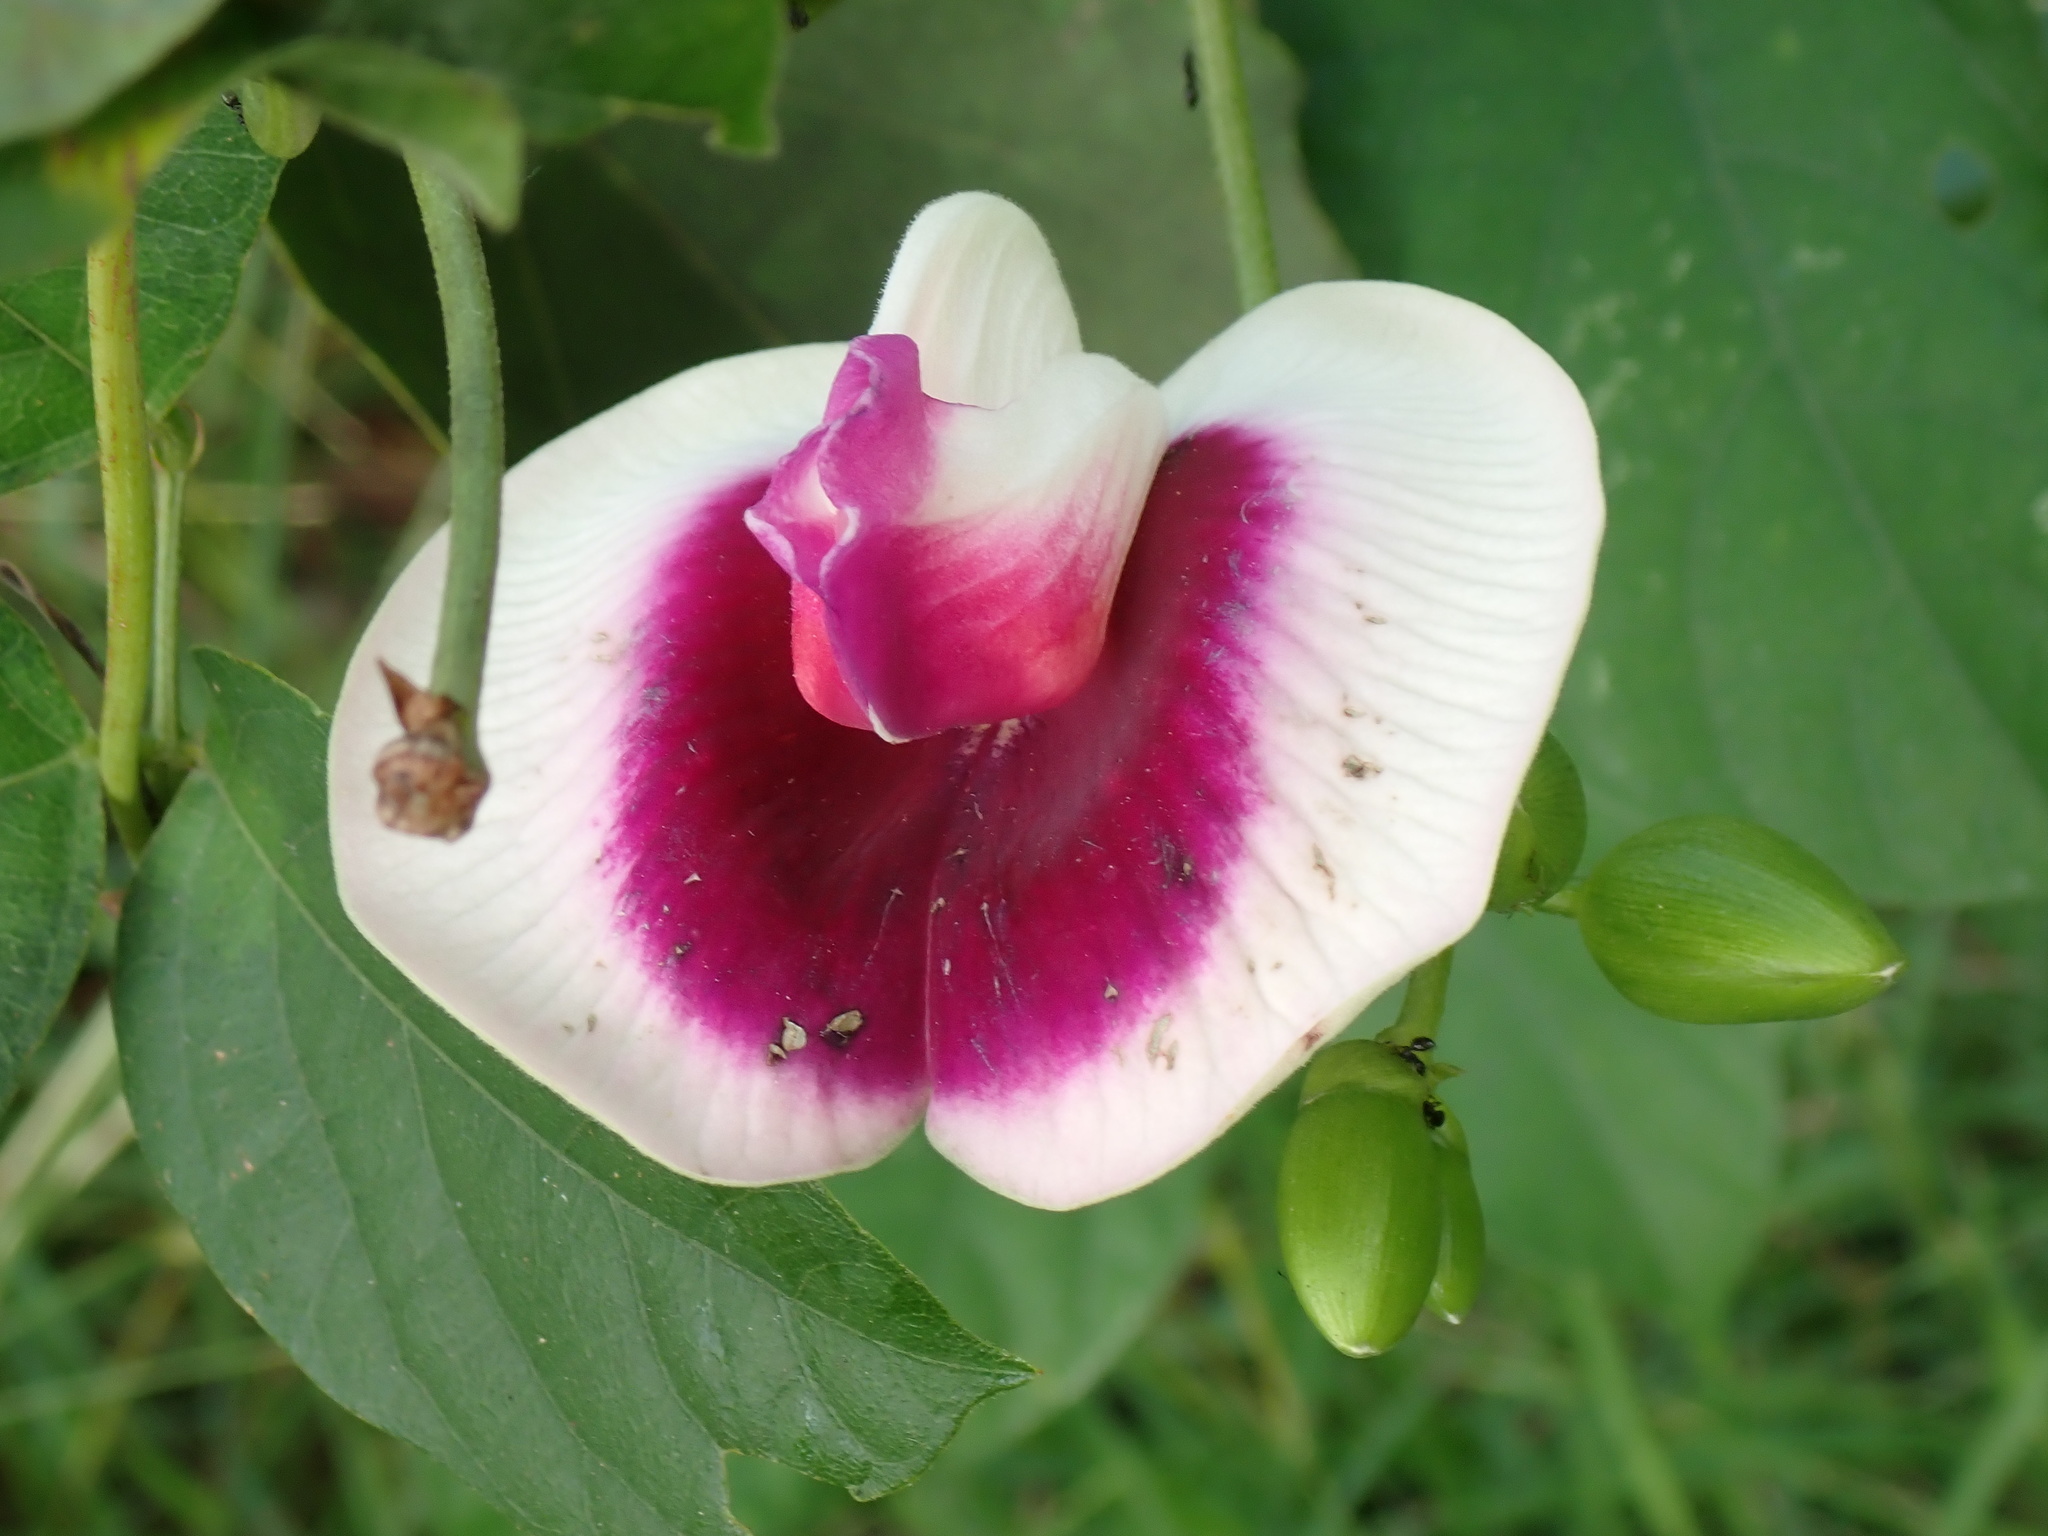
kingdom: Plantae
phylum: Tracheophyta
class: Magnoliopsida
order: Fabales
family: Fabaceae
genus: Centrosema
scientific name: Centrosema plumieri
